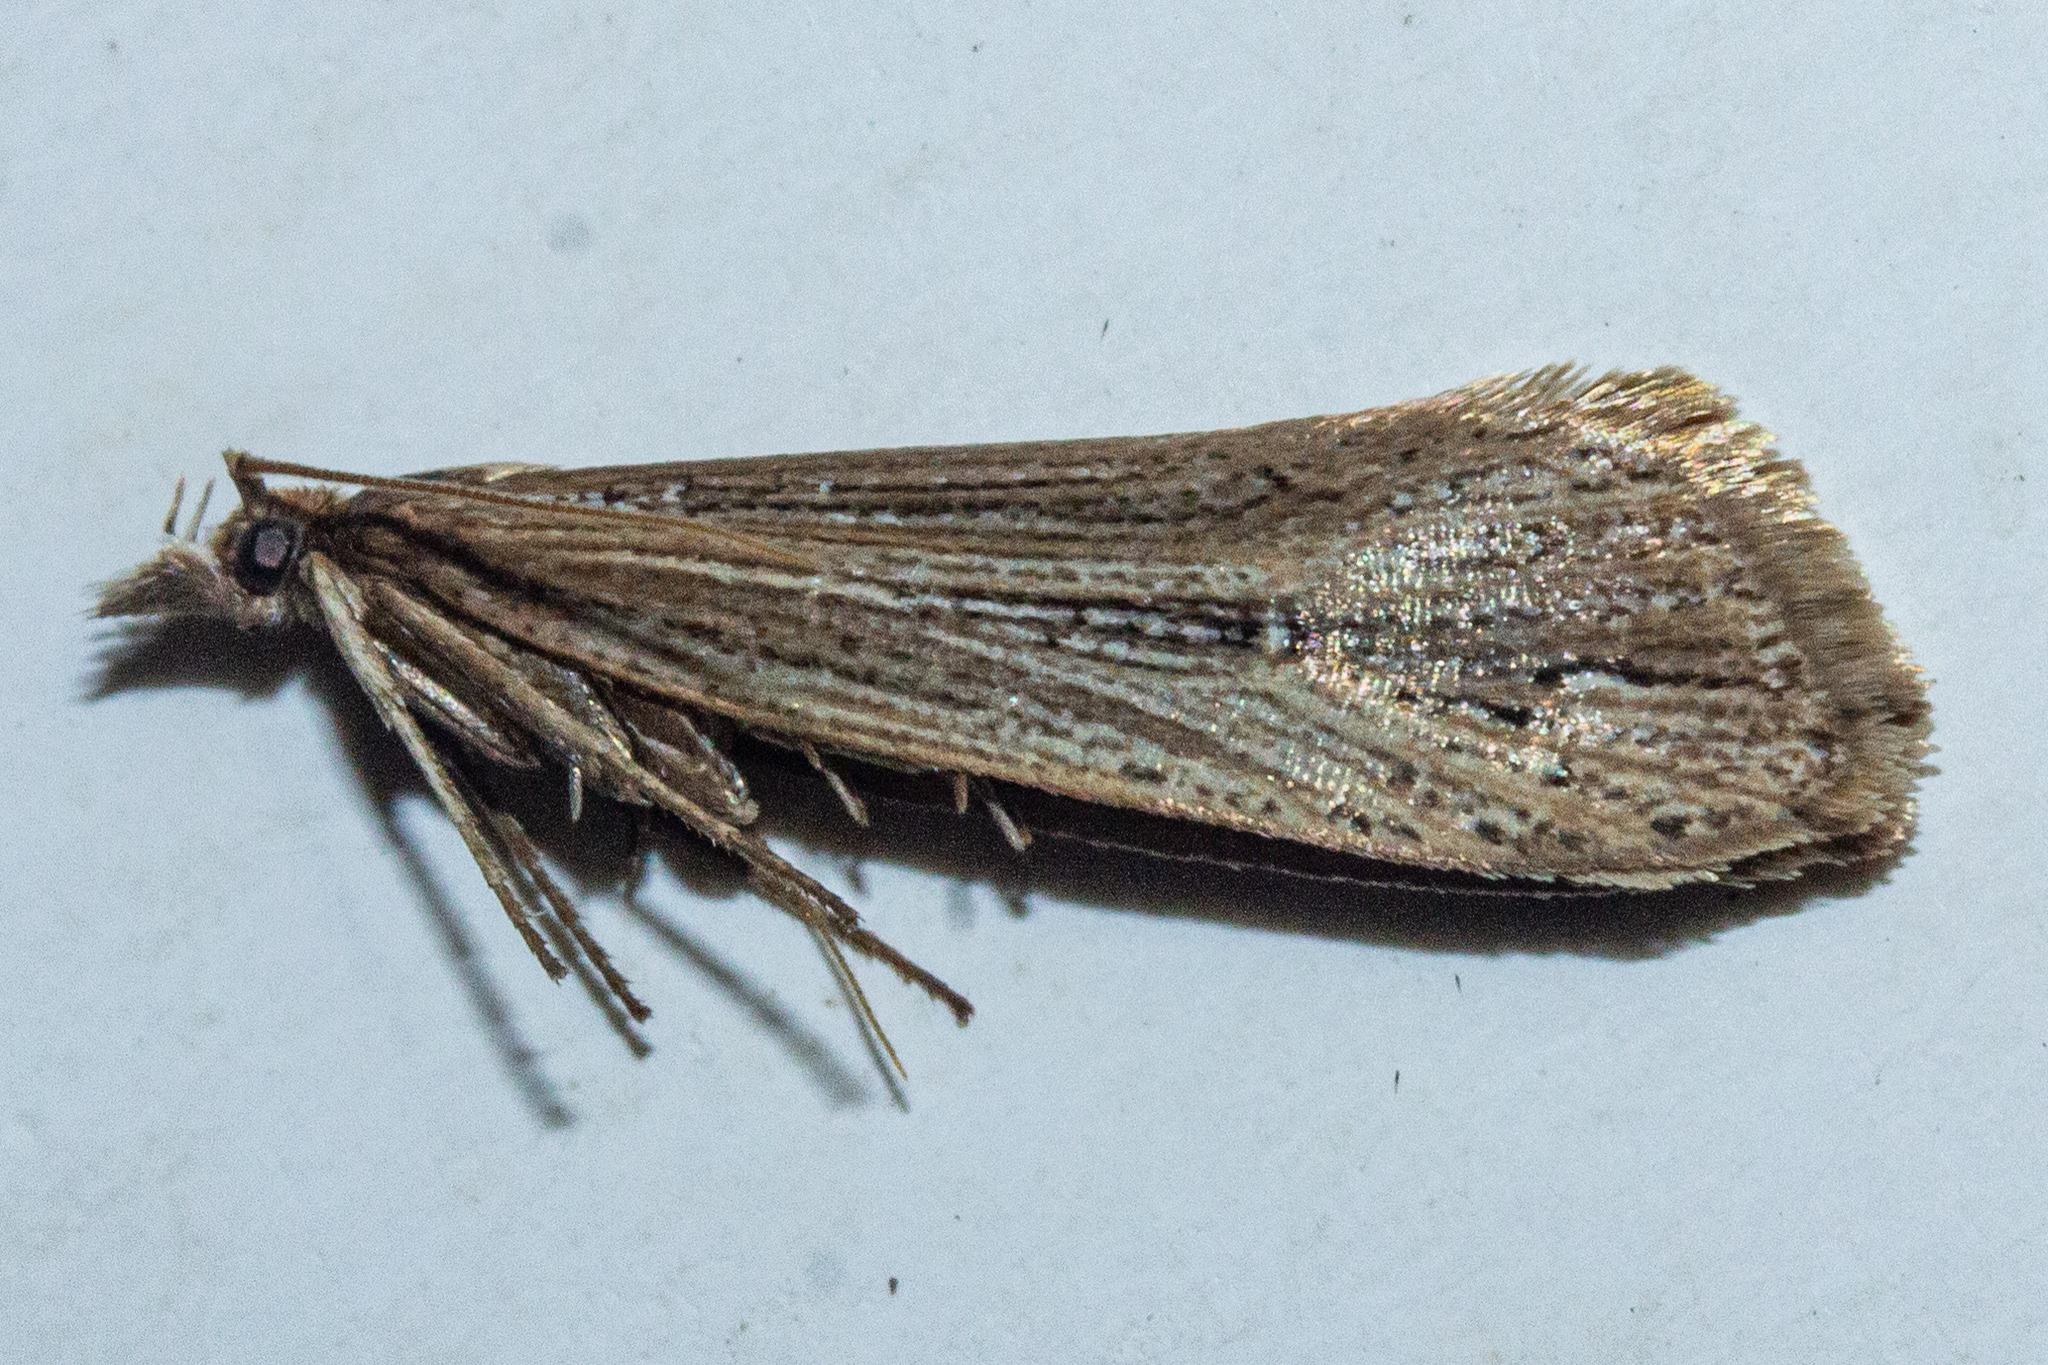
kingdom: Animalia
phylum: Arthropoda
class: Insecta
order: Lepidoptera
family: Plutellidae
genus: Proditrix
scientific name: Proditrix megalynta
